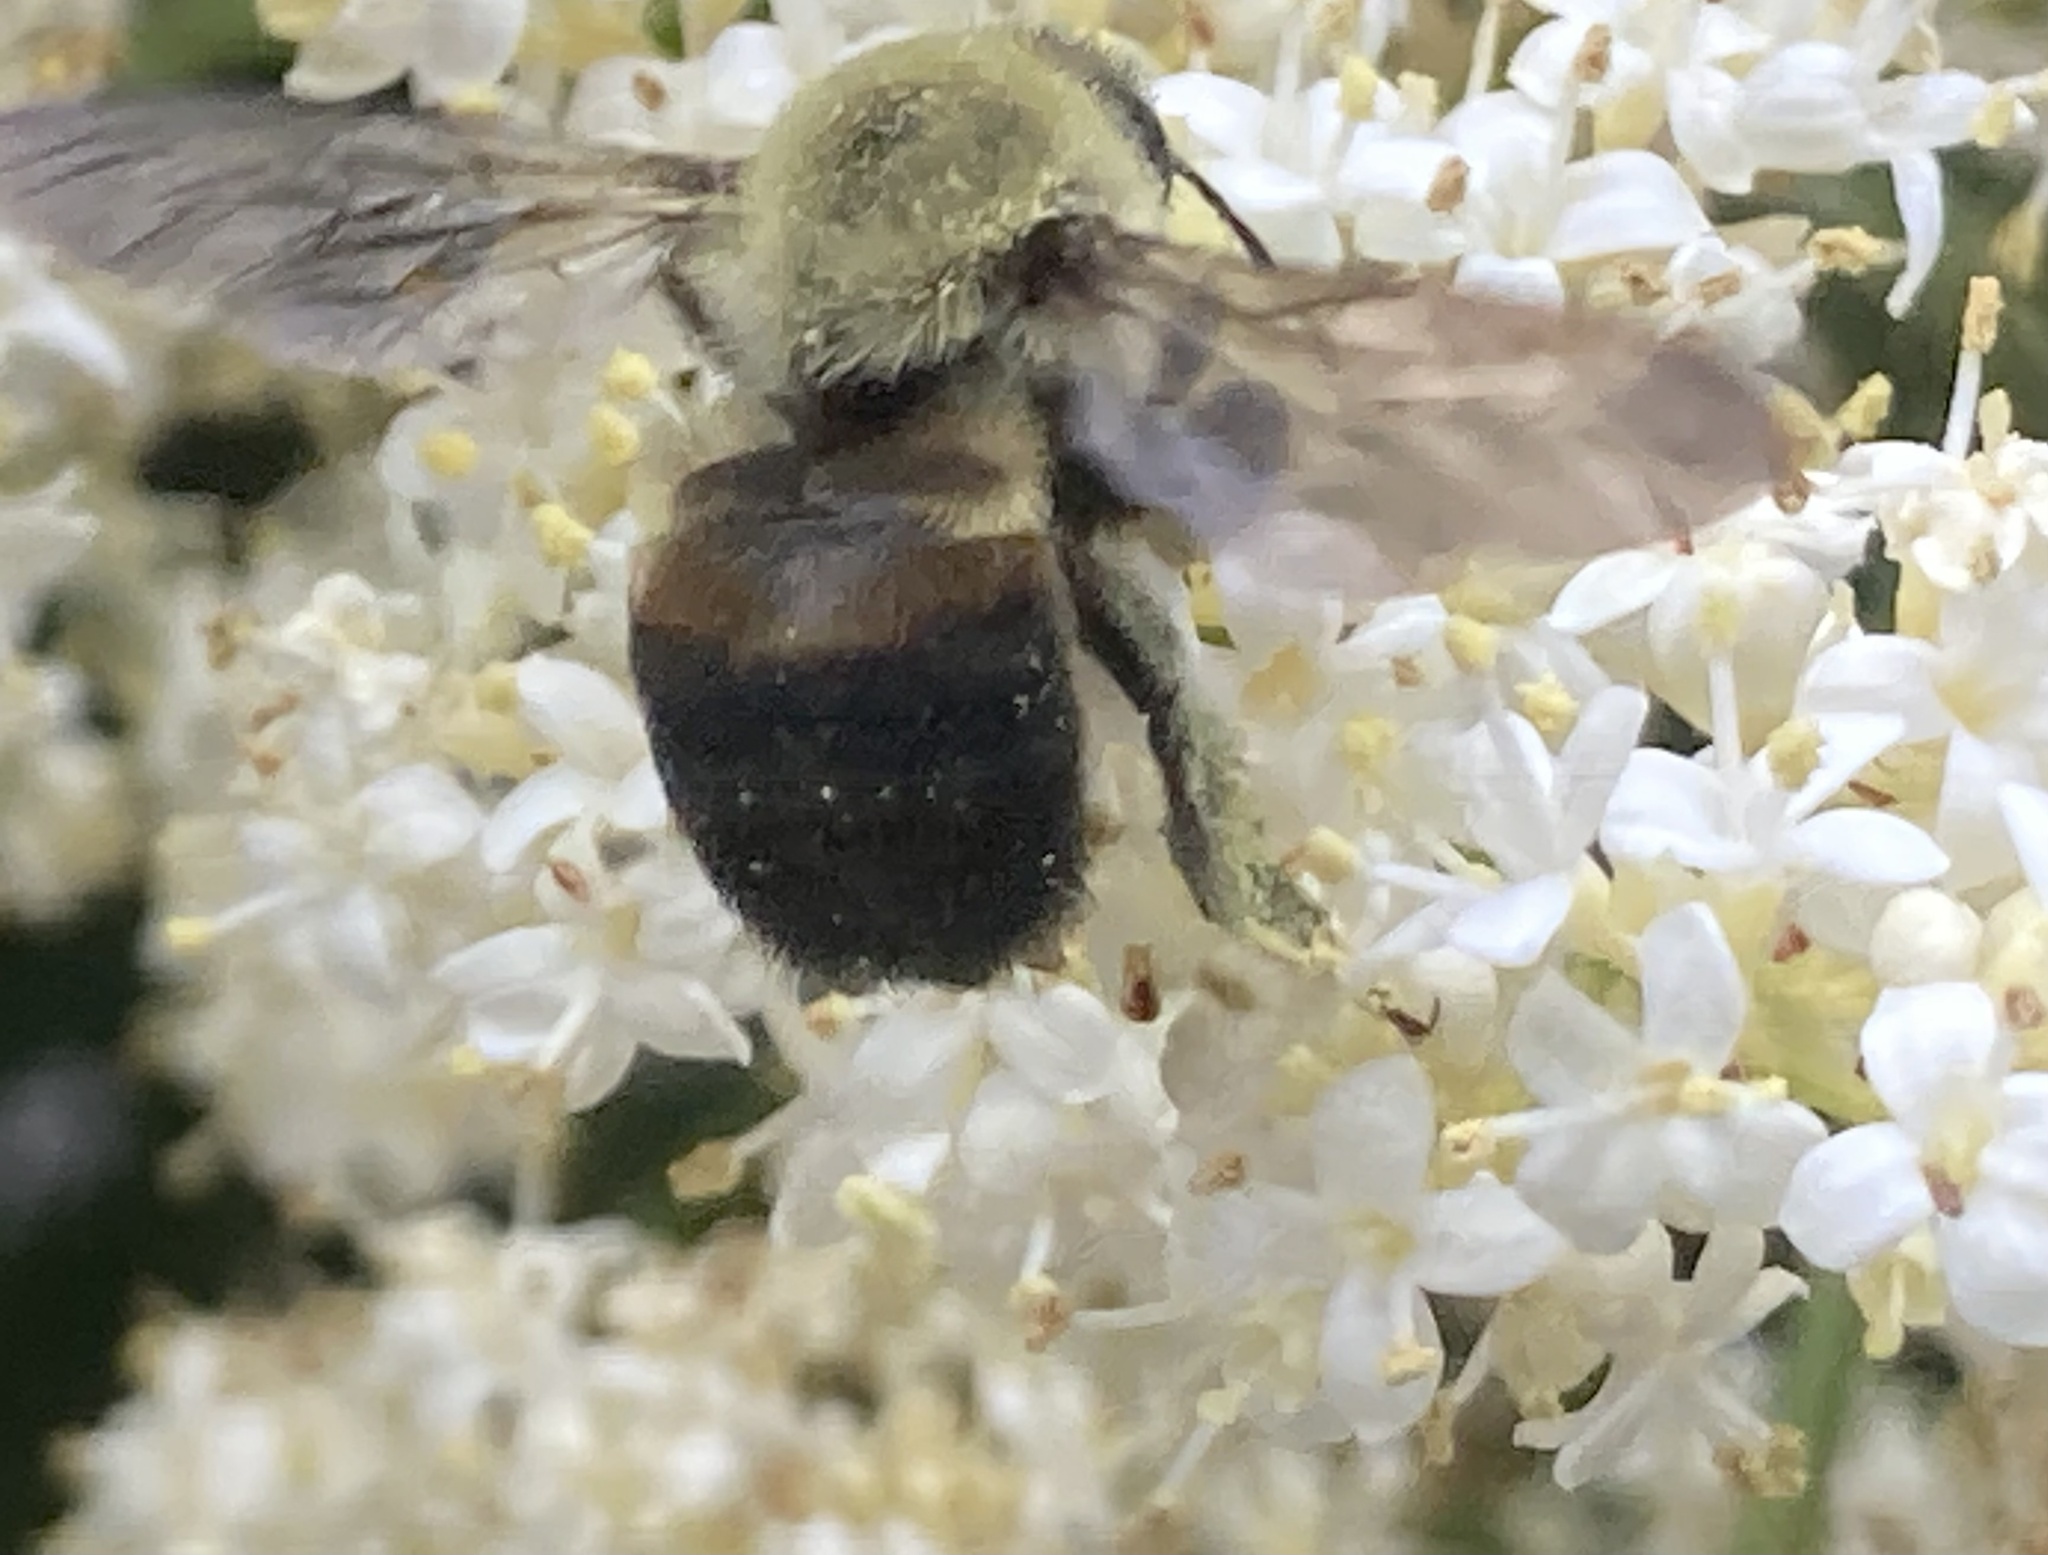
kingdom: Animalia
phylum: Arthropoda
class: Insecta
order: Hymenoptera
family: Apidae
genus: Bombus
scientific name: Bombus griseocollis
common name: Brown-belted bumble bee
